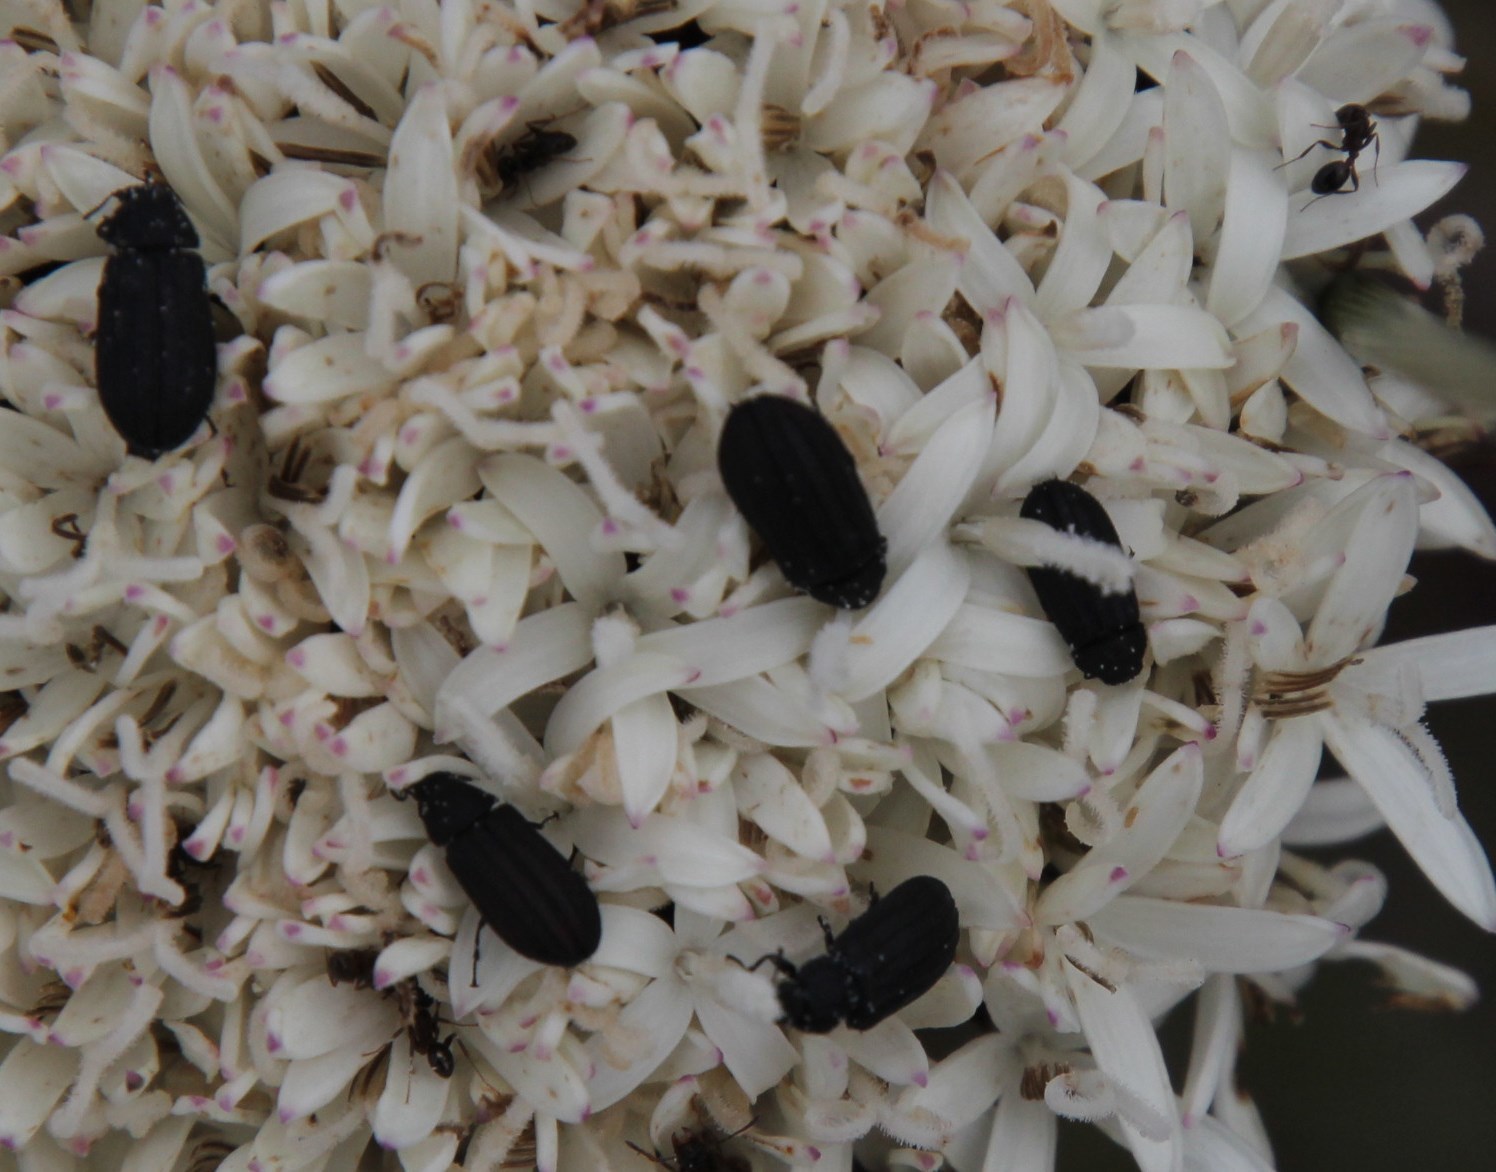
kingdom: Plantae
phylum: Tracheophyta
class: Magnoliopsida
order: Asterales
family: Asteraceae
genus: Corymbium
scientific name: Corymbium africanum
